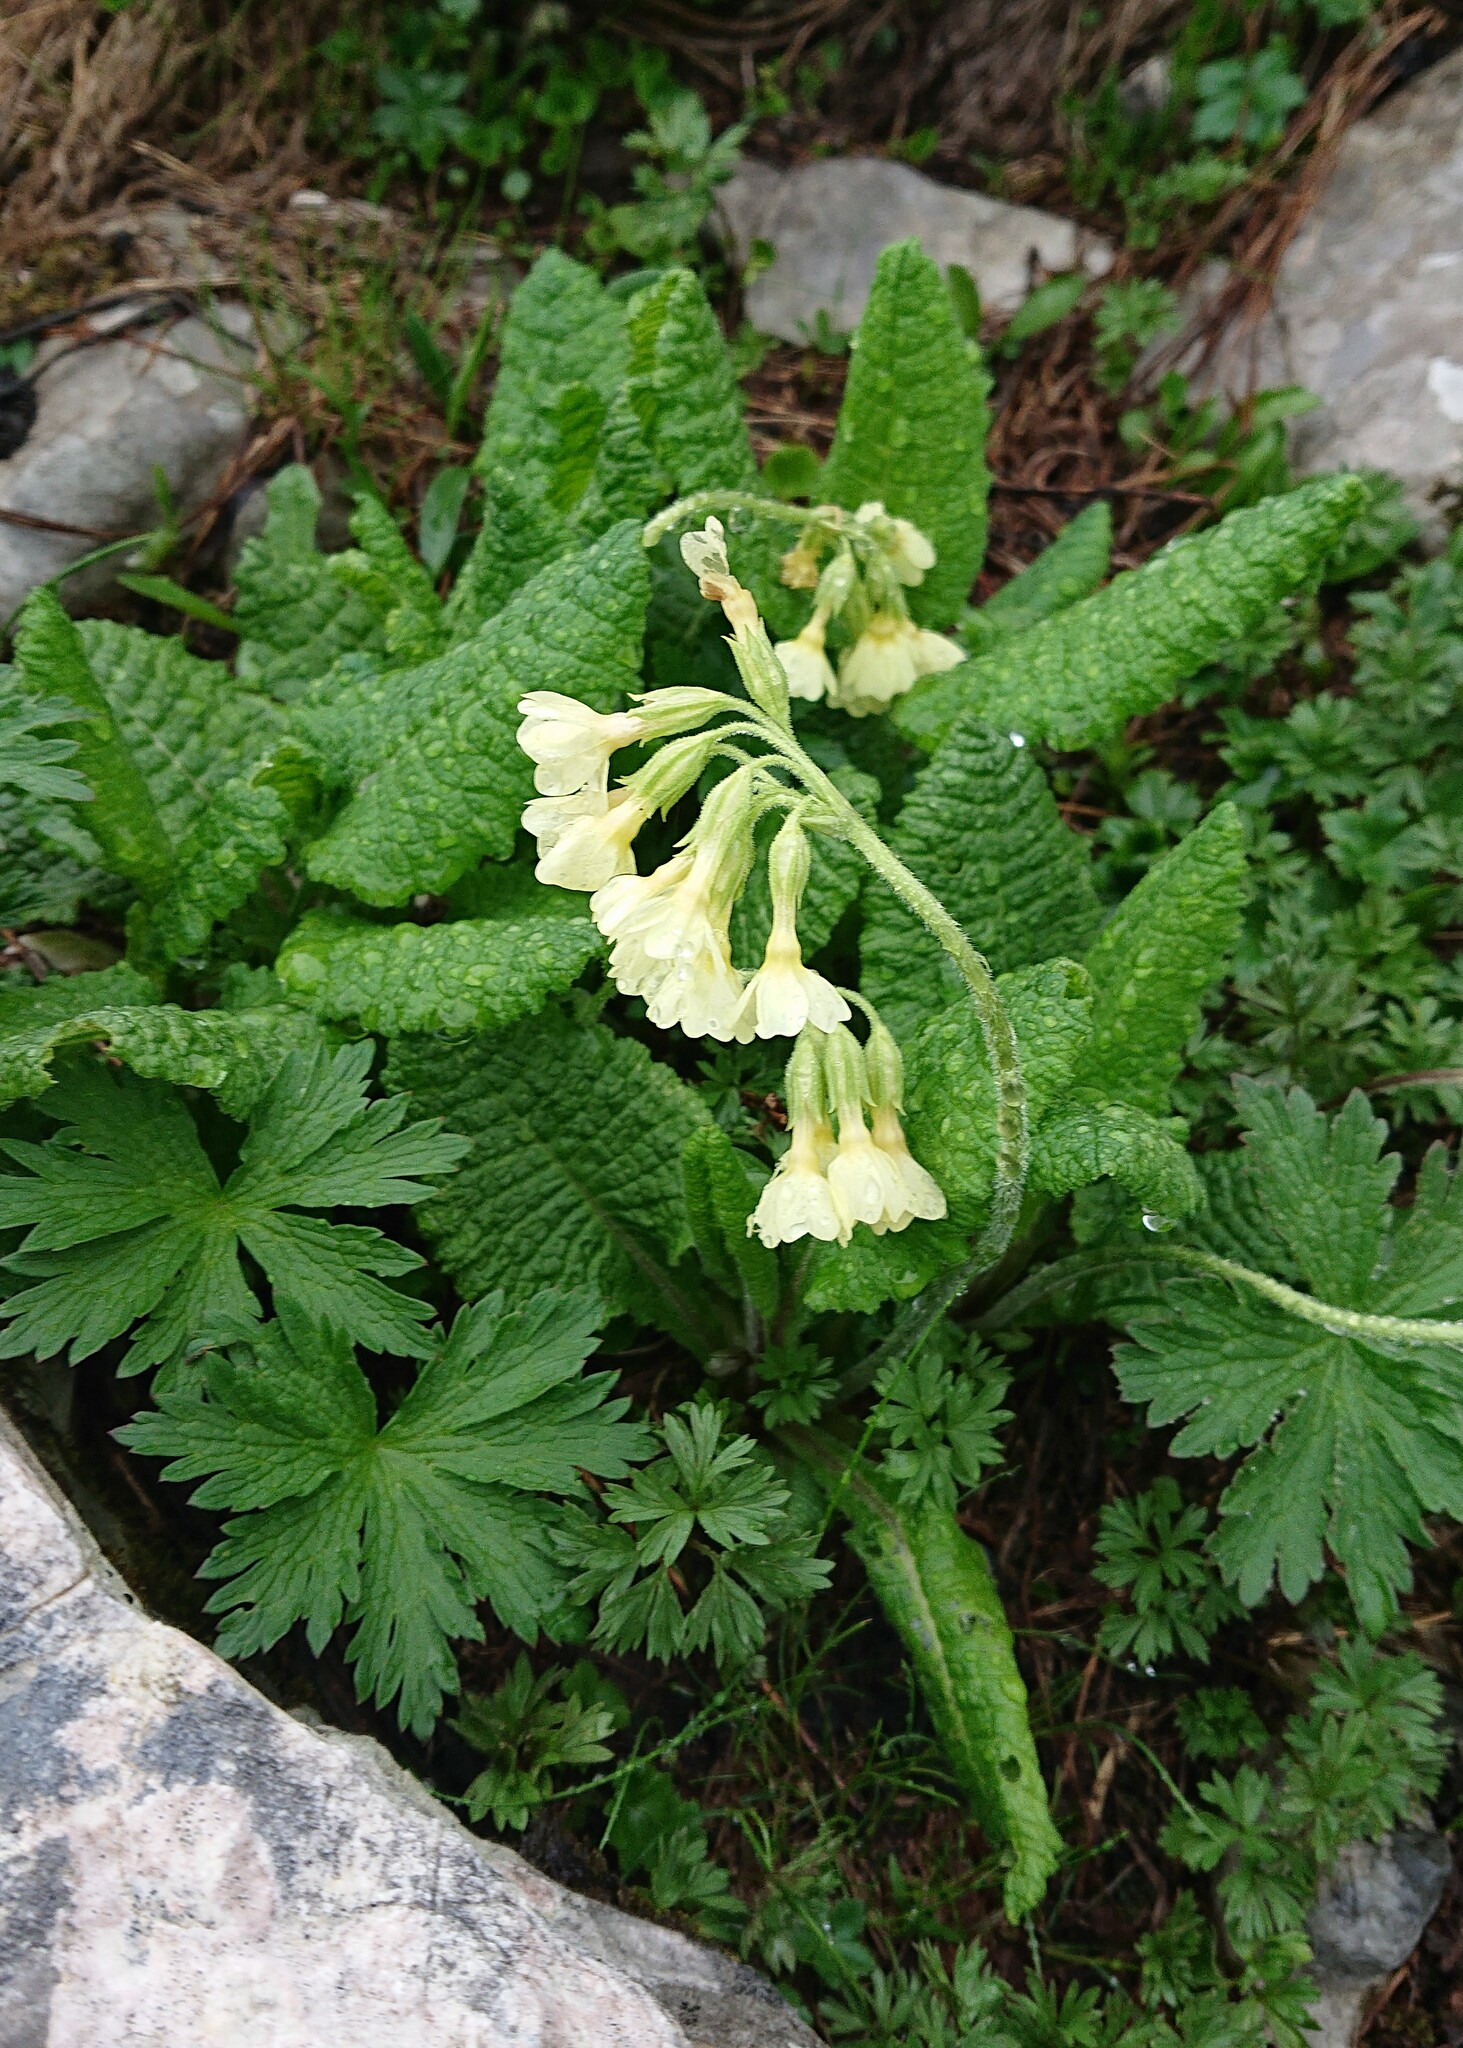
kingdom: Plantae
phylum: Tracheophyta
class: Magnoliopsida
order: Ericales
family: Primulaceae
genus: Primula
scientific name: Primula elatior
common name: Oxlip
